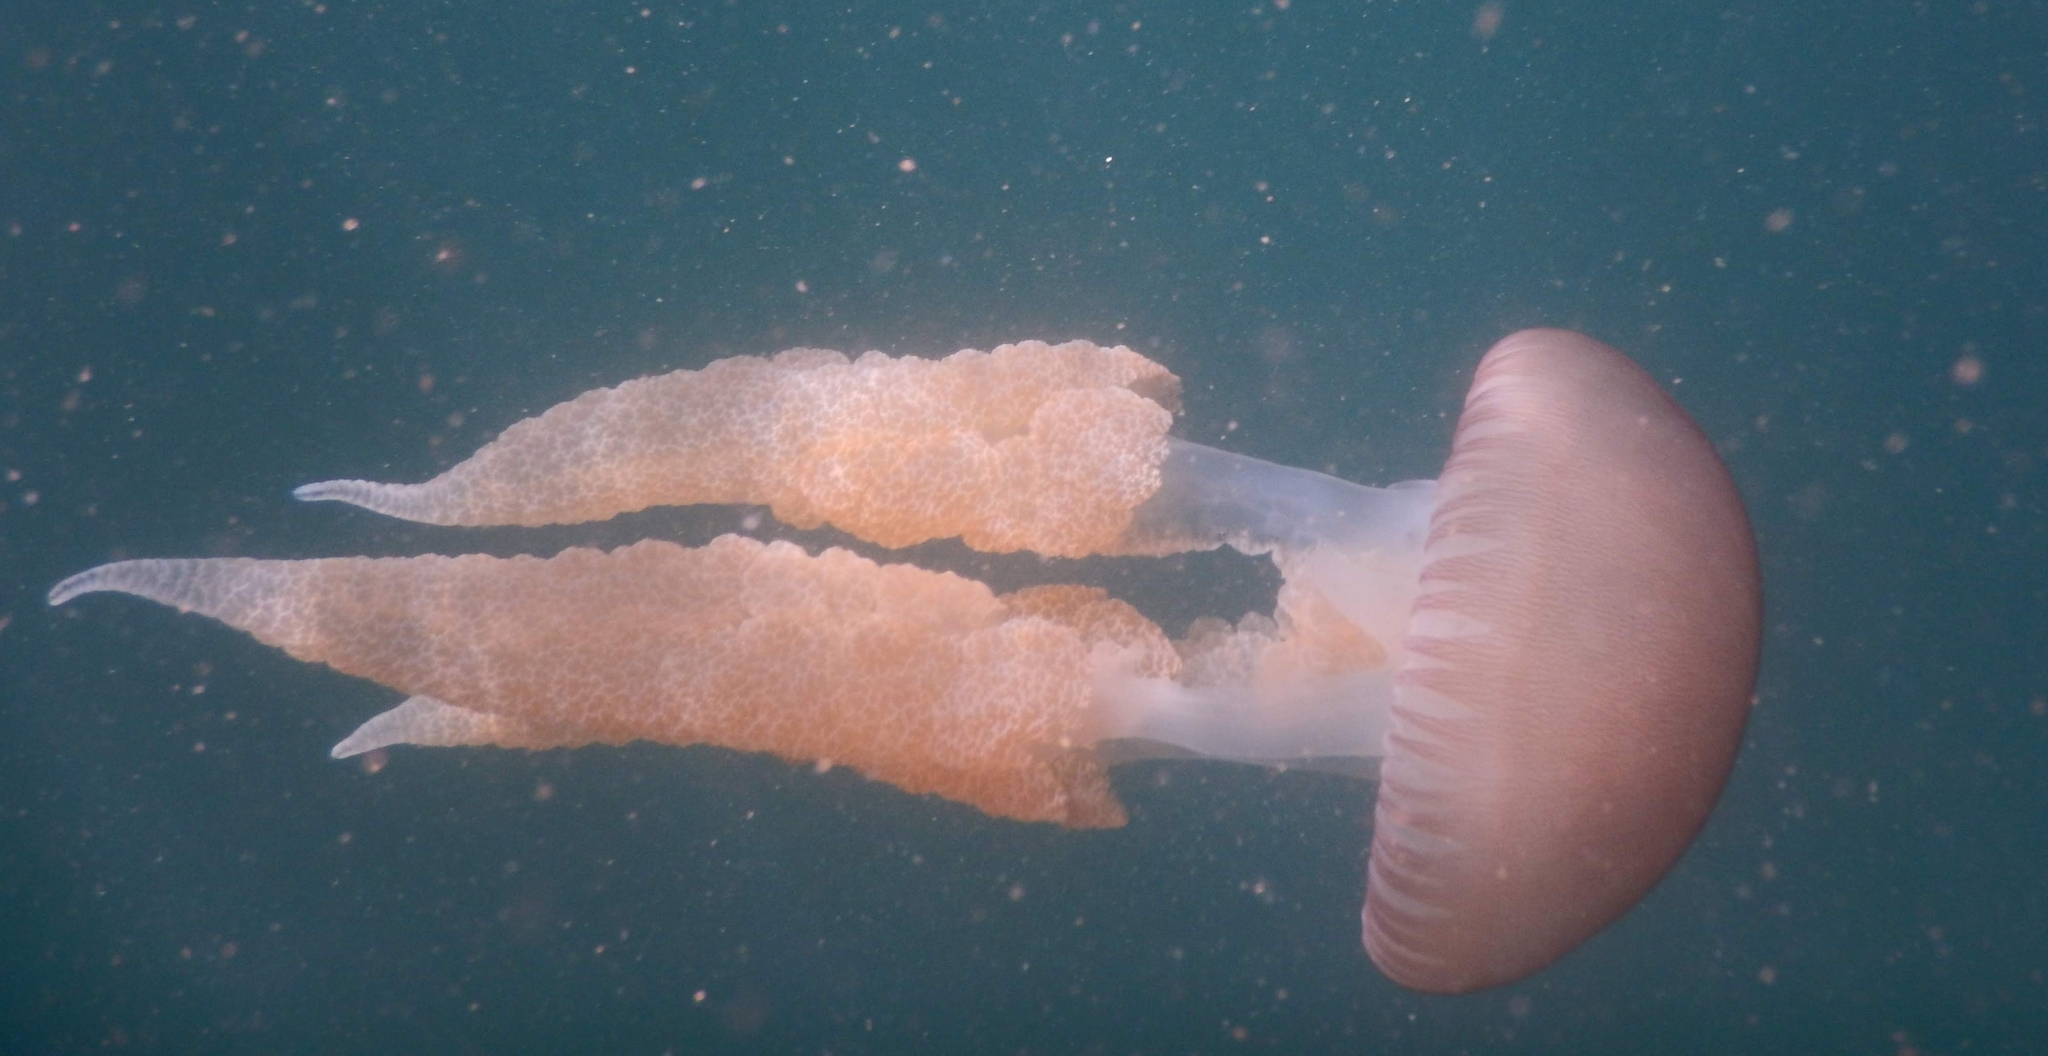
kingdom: Animalia
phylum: Cnidaria
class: Scyphozoa
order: Rhizostomeae
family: Catostylidae
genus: Catostylus
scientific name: Catostylus tagi
